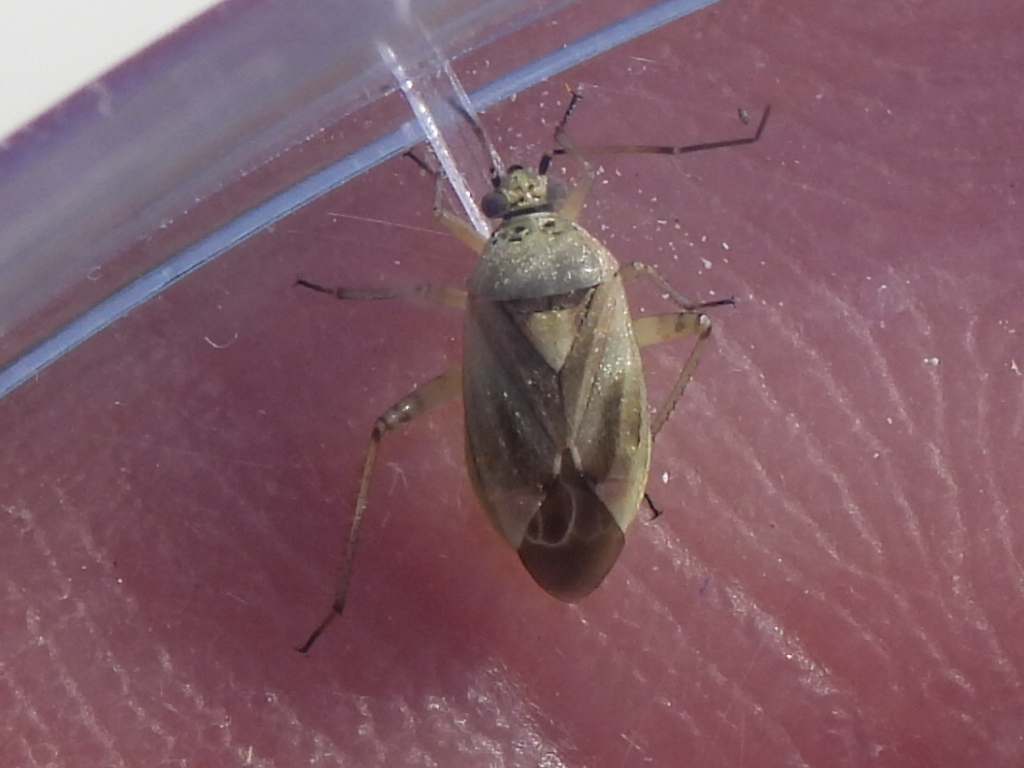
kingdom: Animalia
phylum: Arthropoda
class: Insecta
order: Hemiptera
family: Miridae
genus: Polymerus
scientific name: Polymerus basalis
